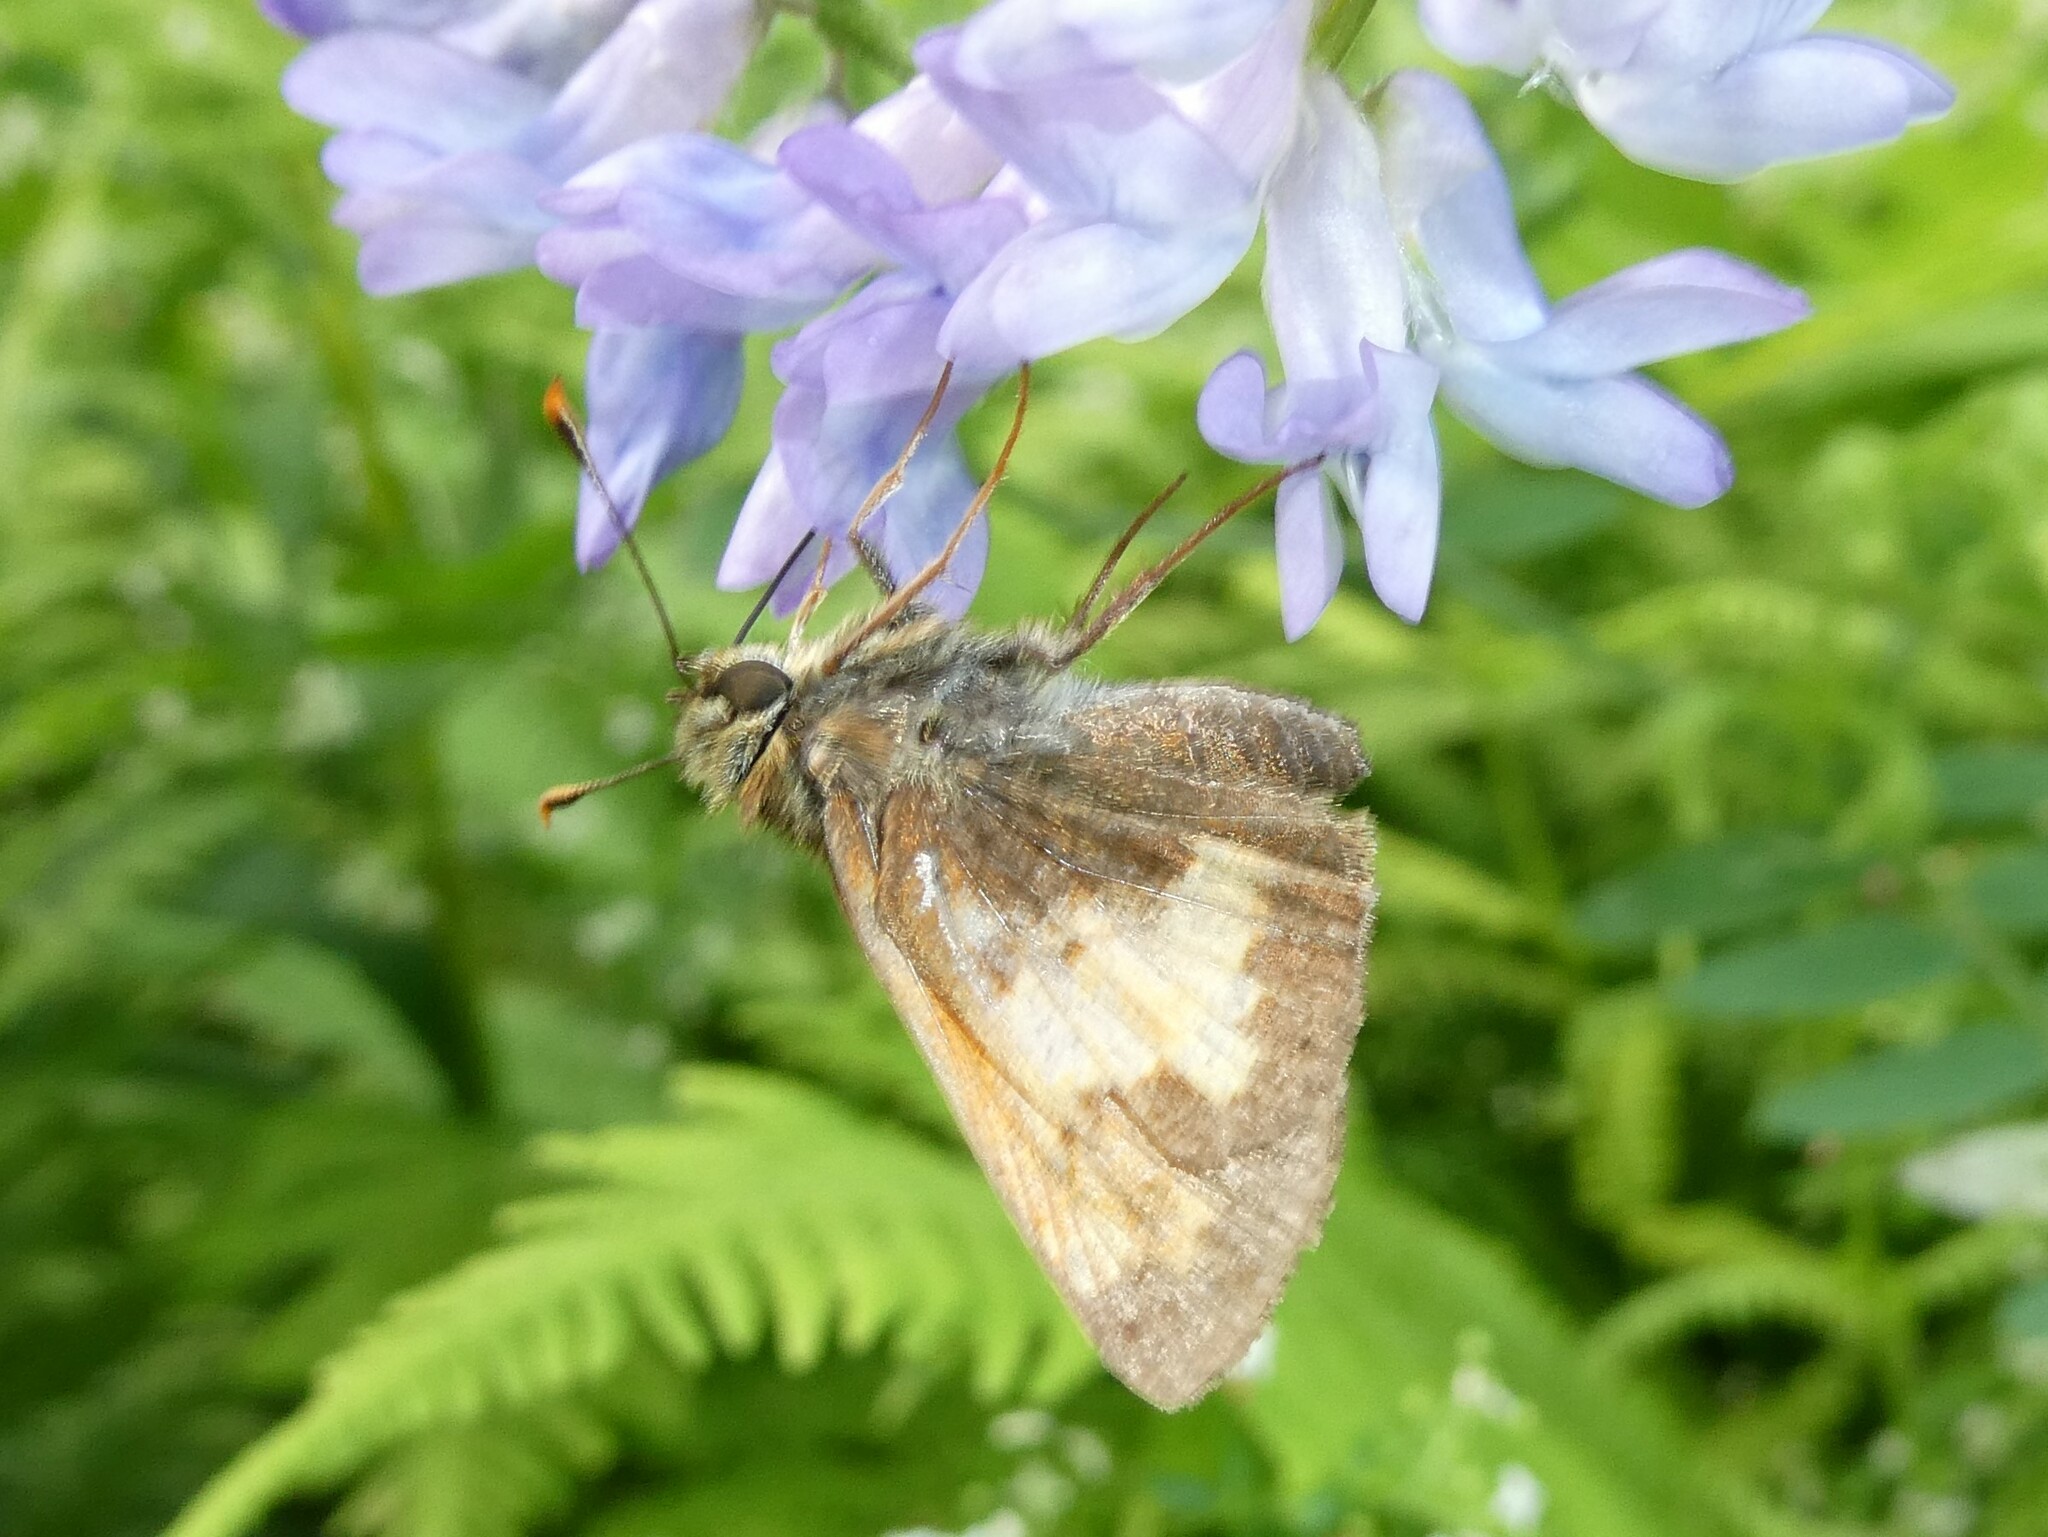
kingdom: Animalia
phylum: Arthropoda
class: Insecta
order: Lepidoptera
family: Hesperiidae
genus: Lon
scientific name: Lon hobomok
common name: Hobomok skipper
